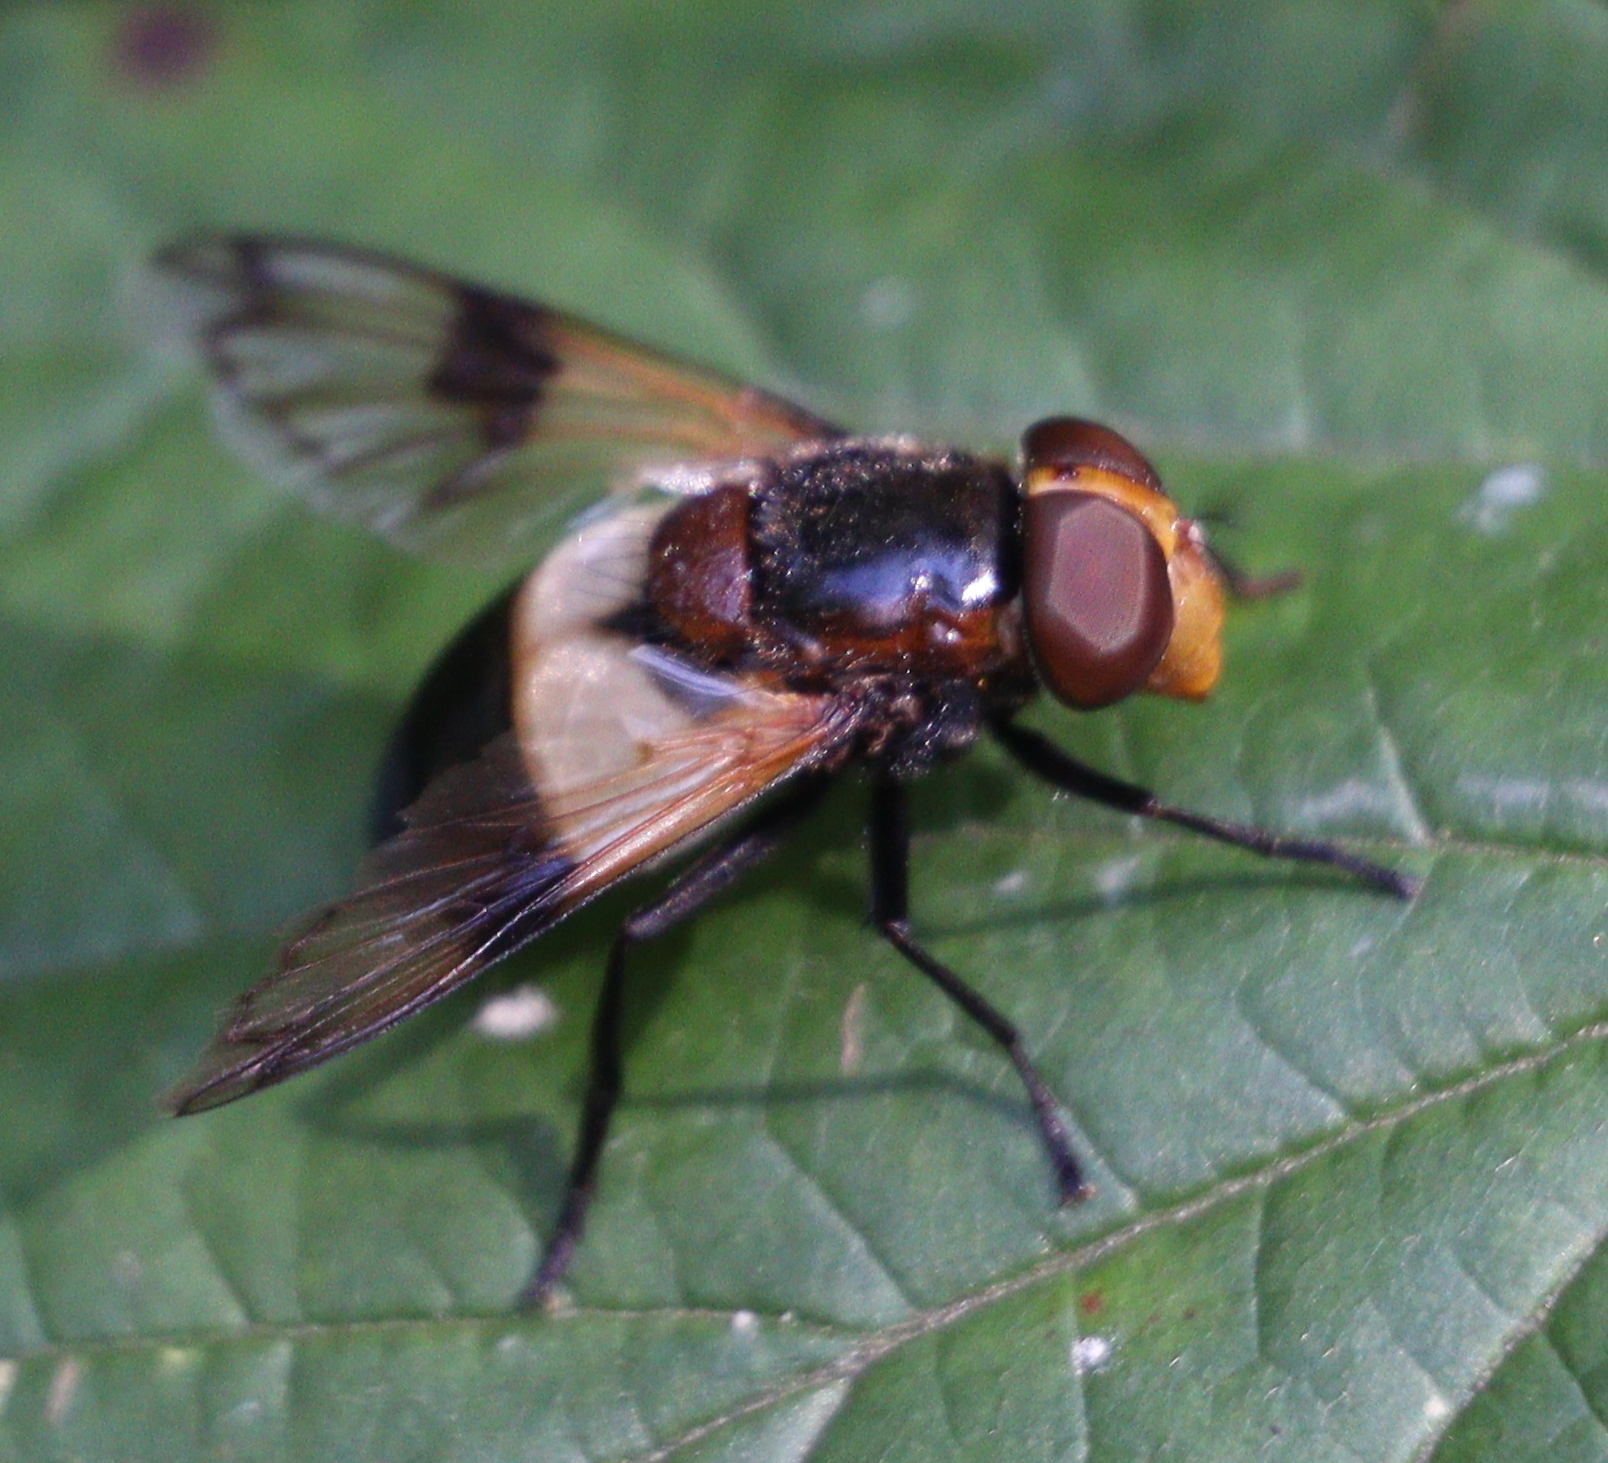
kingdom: Animalia
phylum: Arthropoda
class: Insecta
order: Diptera
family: Syrphidae
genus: Volucella
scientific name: Volucella pellucens
